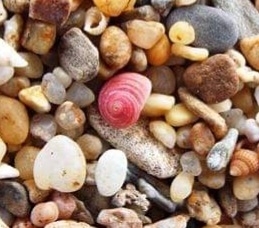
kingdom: Animalia
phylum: Mollusca
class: Gastropoda
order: Trochida
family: Colloniidae
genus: Homalopoma
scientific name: Homalopoma sanguineum
